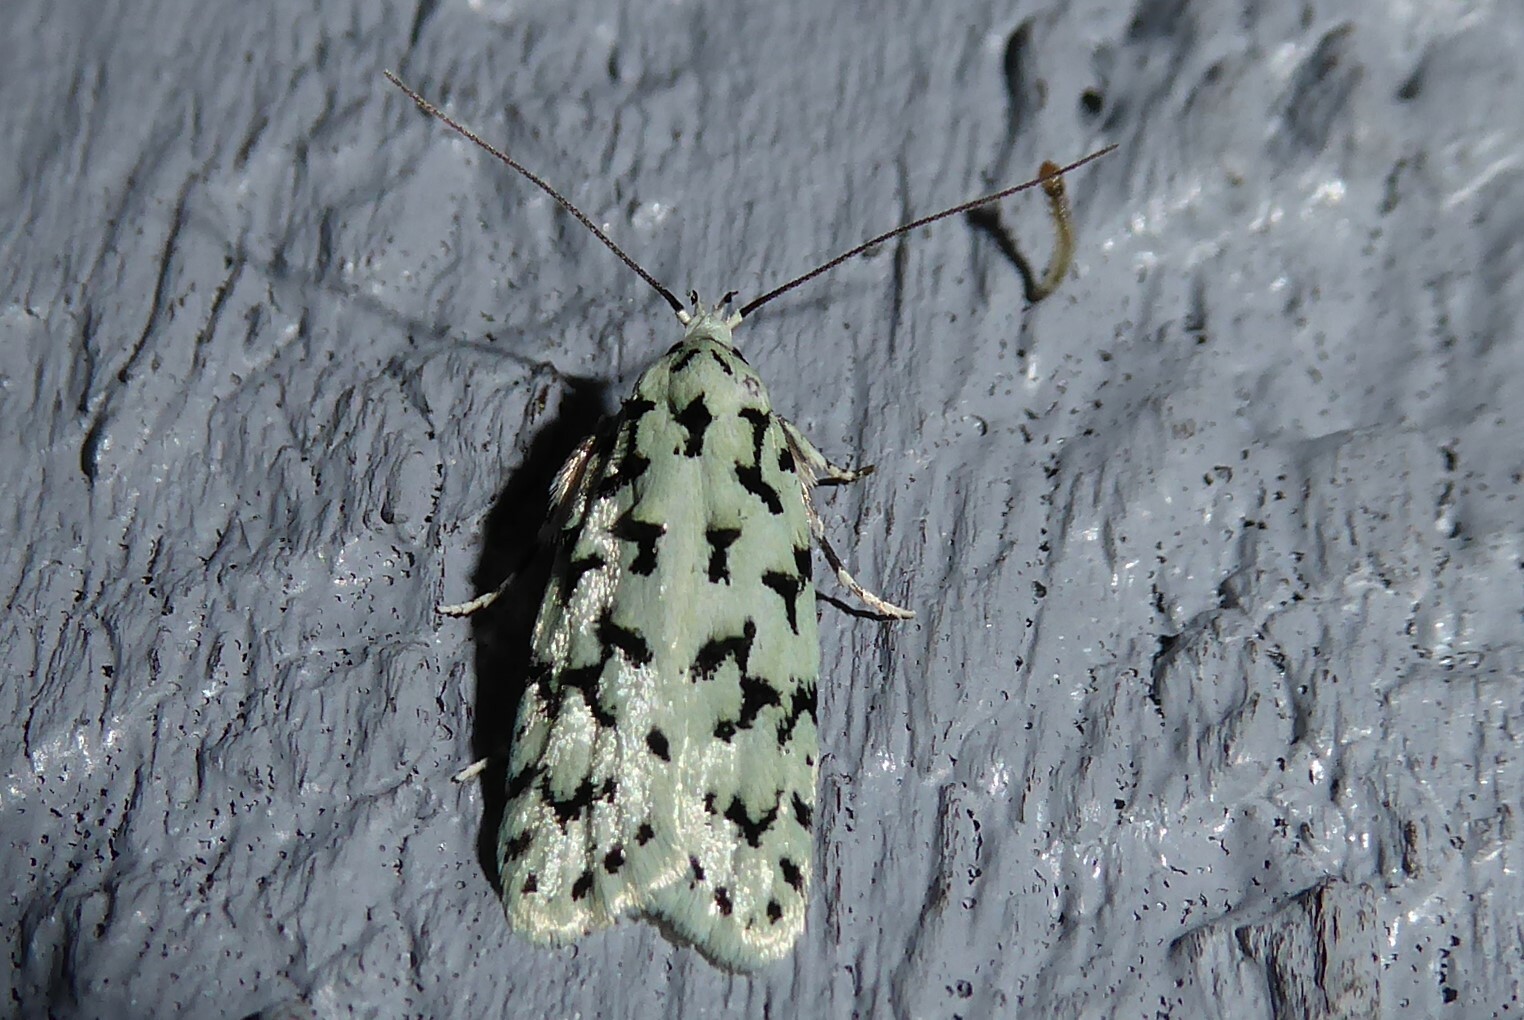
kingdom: Animalia
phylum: Arthropoda
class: Insecta
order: Lepidoptera
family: Oecophoridae
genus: Izatha
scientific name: Izatha huttoni
